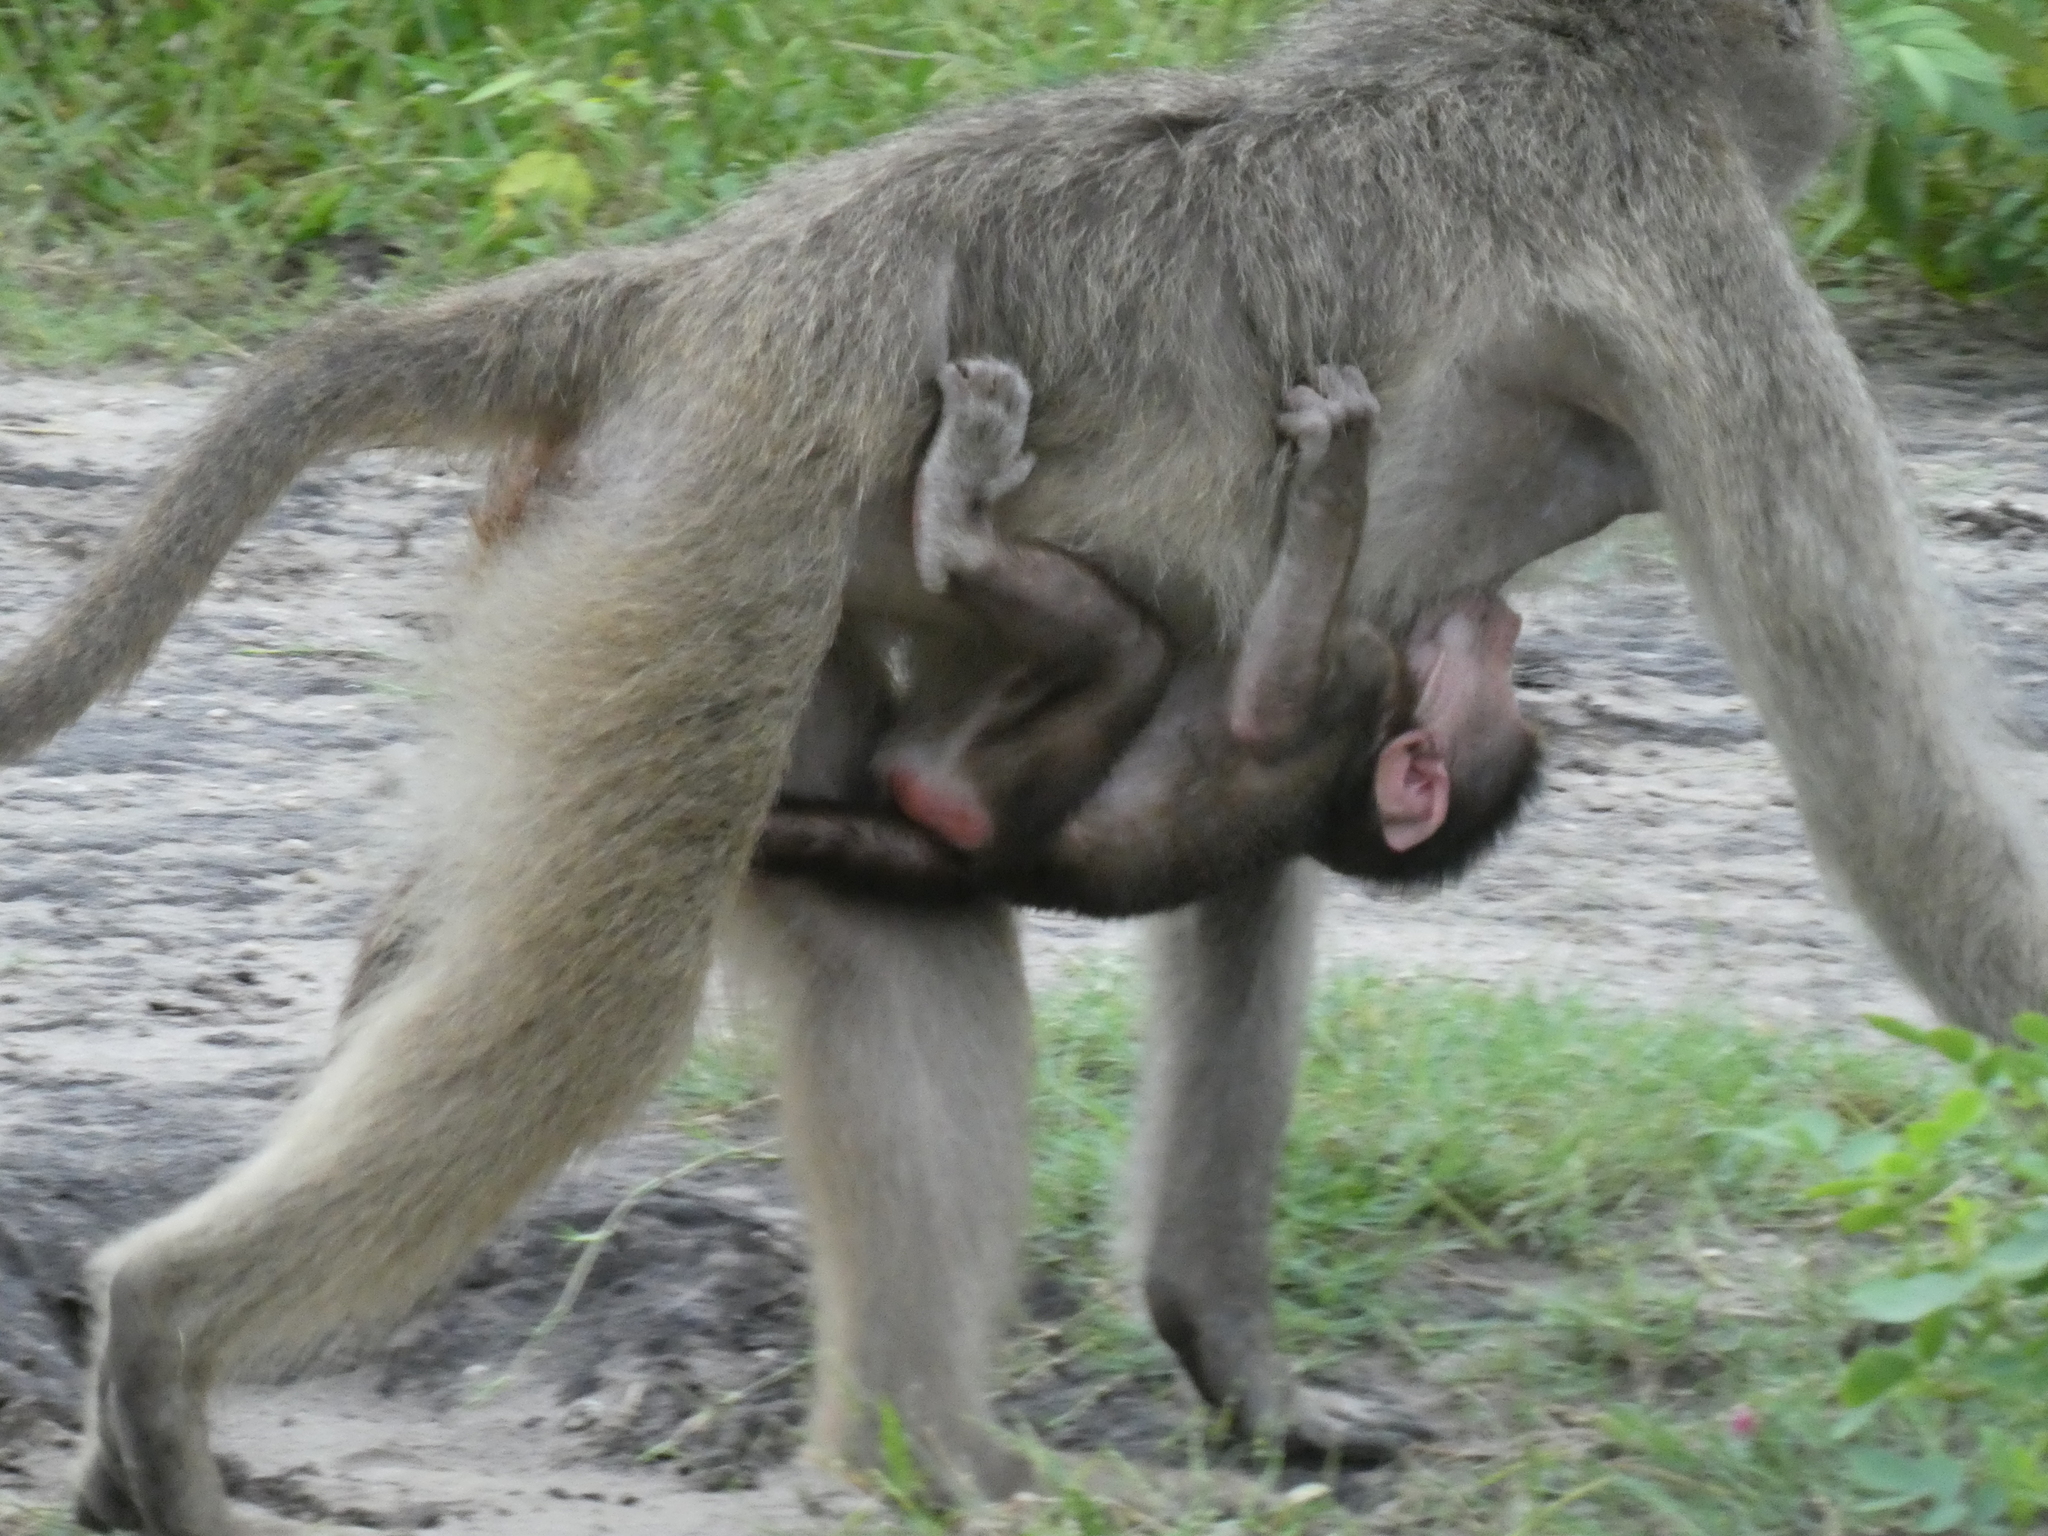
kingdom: Animalia
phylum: Chordata
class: Mammalia
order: Primates
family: Cercopithecidae
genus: Papio
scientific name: Papio ursinus
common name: Chacma baboon
